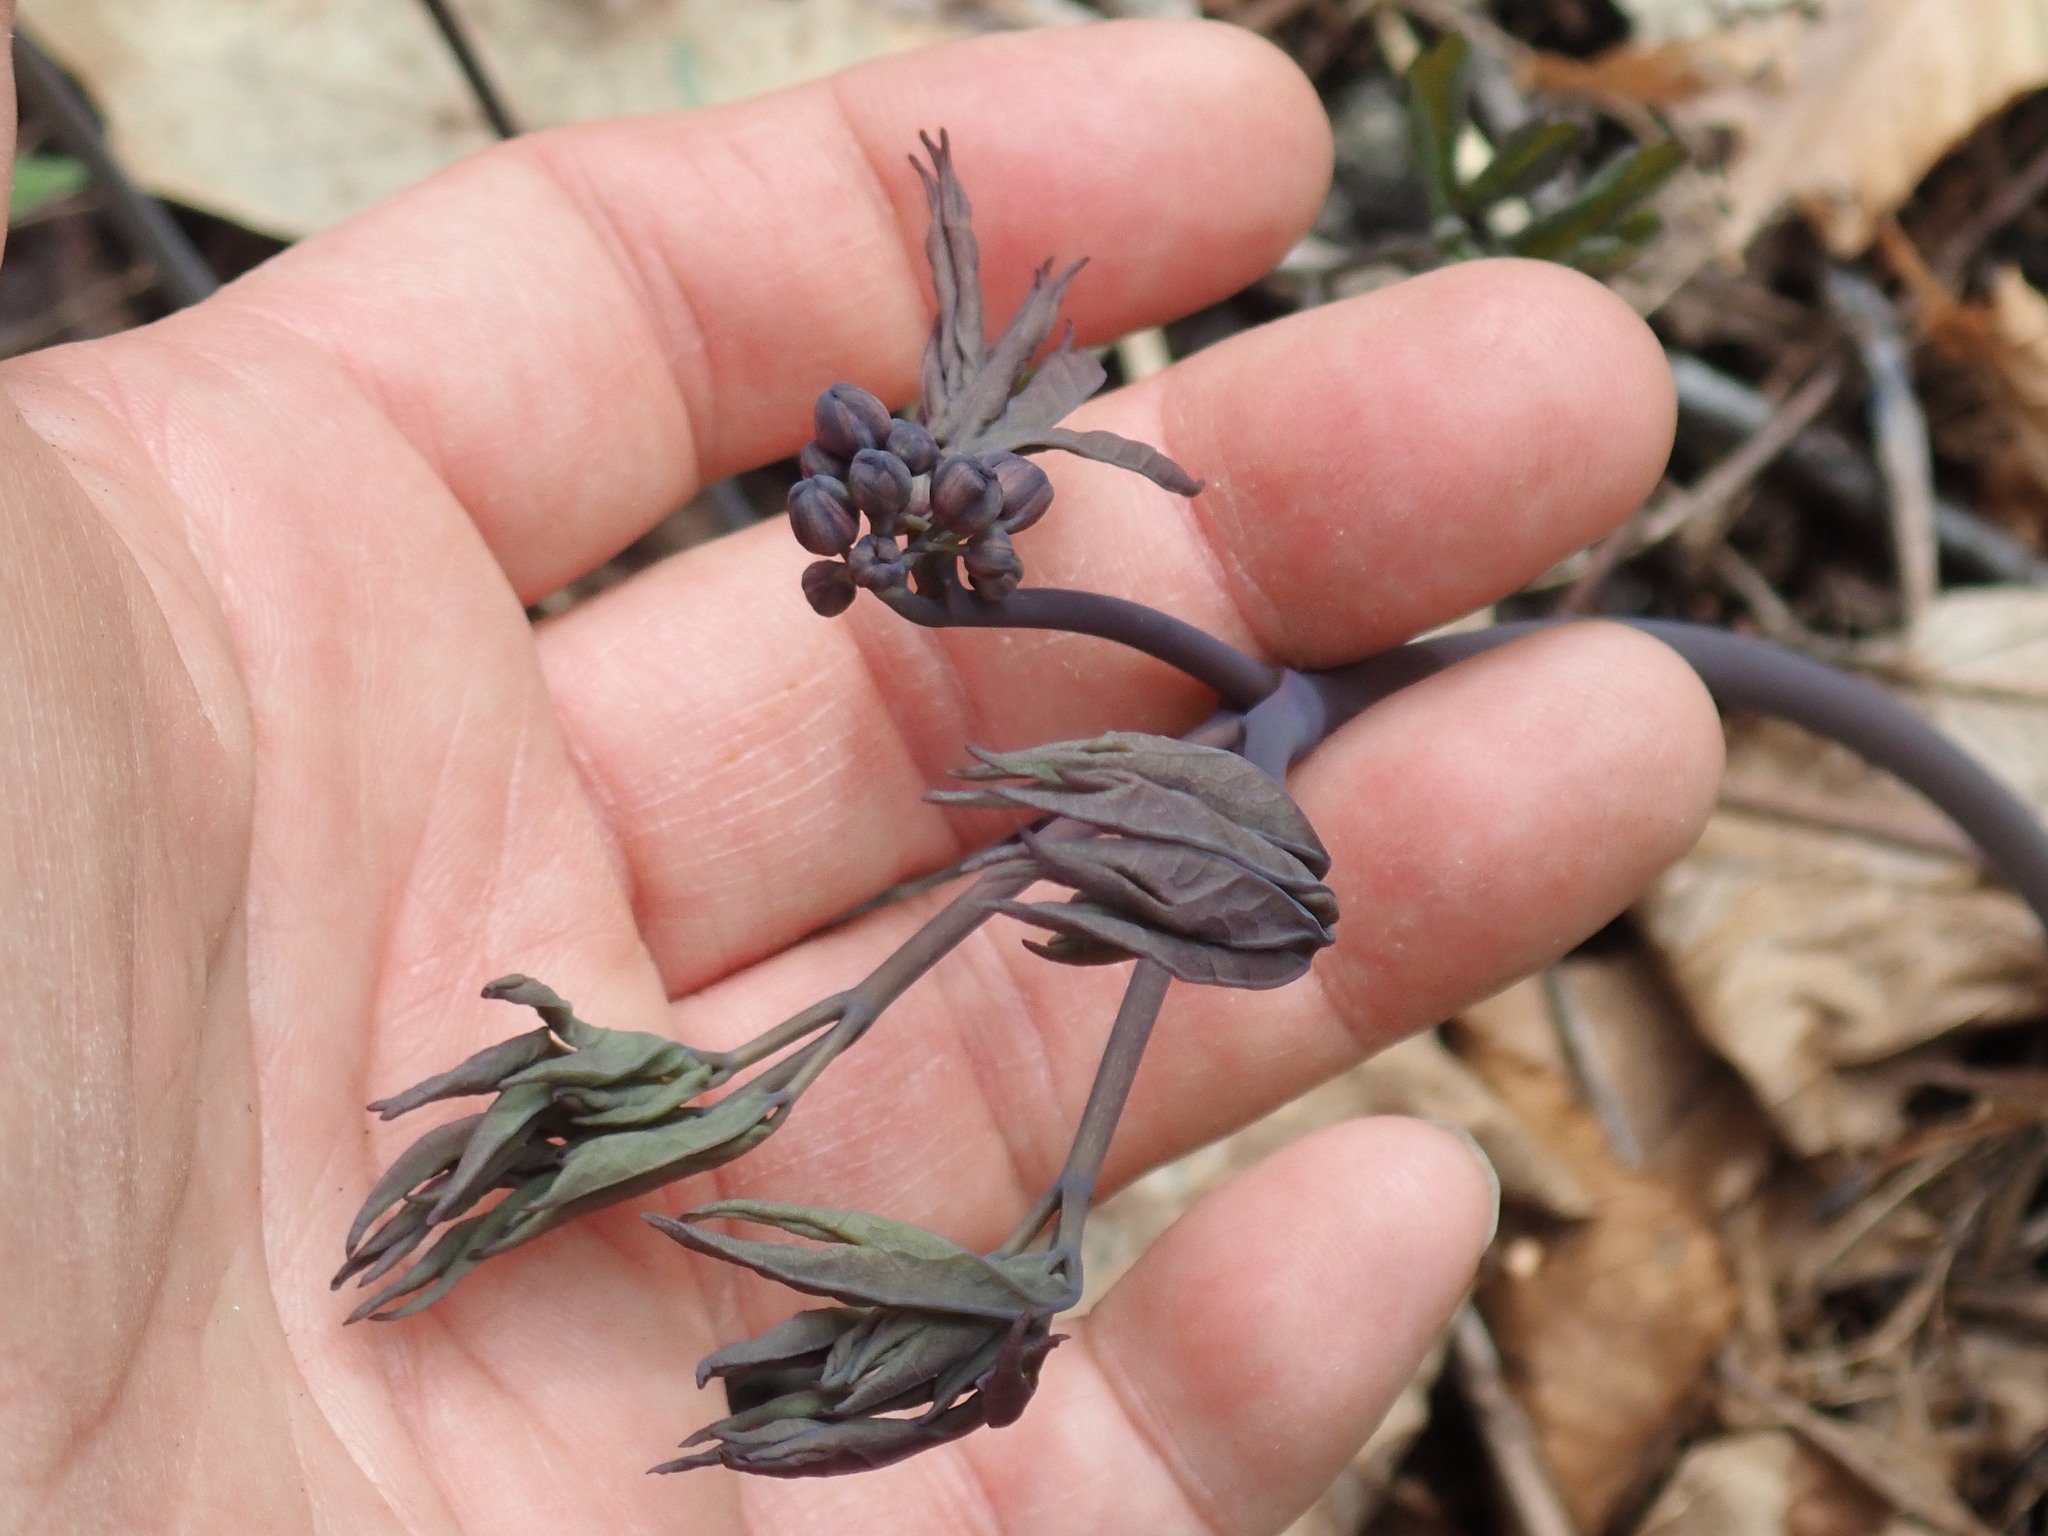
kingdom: Plantae
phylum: Tracheophyta
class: Magnoliopsida
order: Ranunculales
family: Berberidaceae
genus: Caulophyllum
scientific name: Caulophyllum giganteum
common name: Blue cohosh
